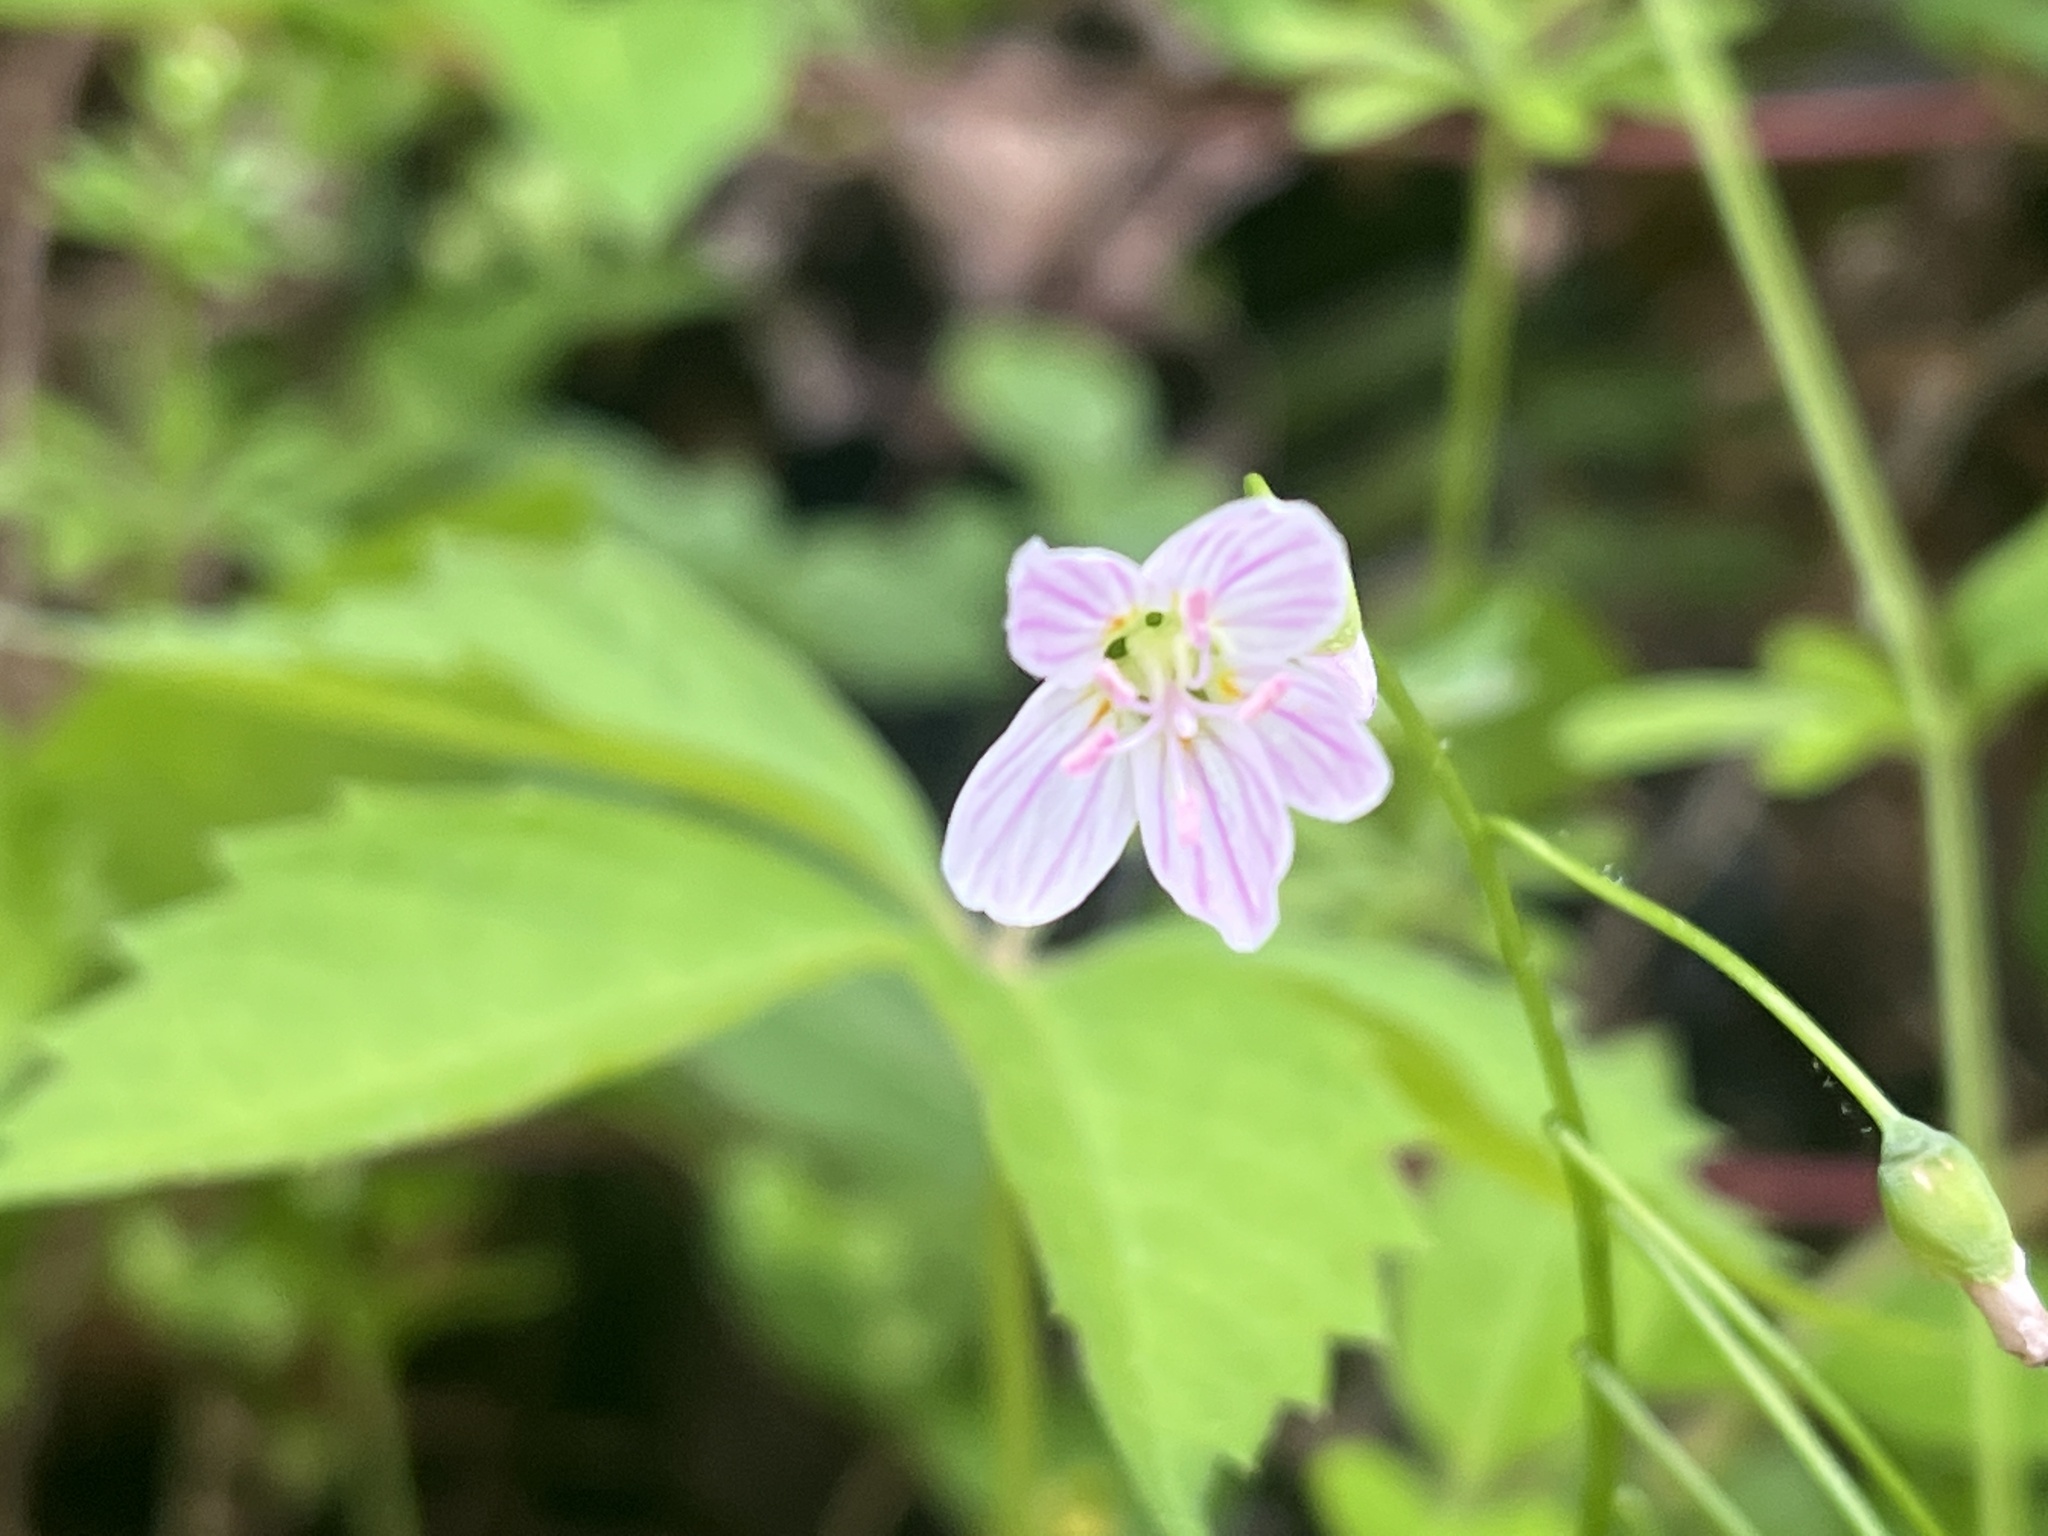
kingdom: Plantae
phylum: Tracheophyta
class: Magnoliopsida
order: Caryophyllales
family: Montiaceae
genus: Claytonia
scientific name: Claytonia virginica
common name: Virginia springbeauty
